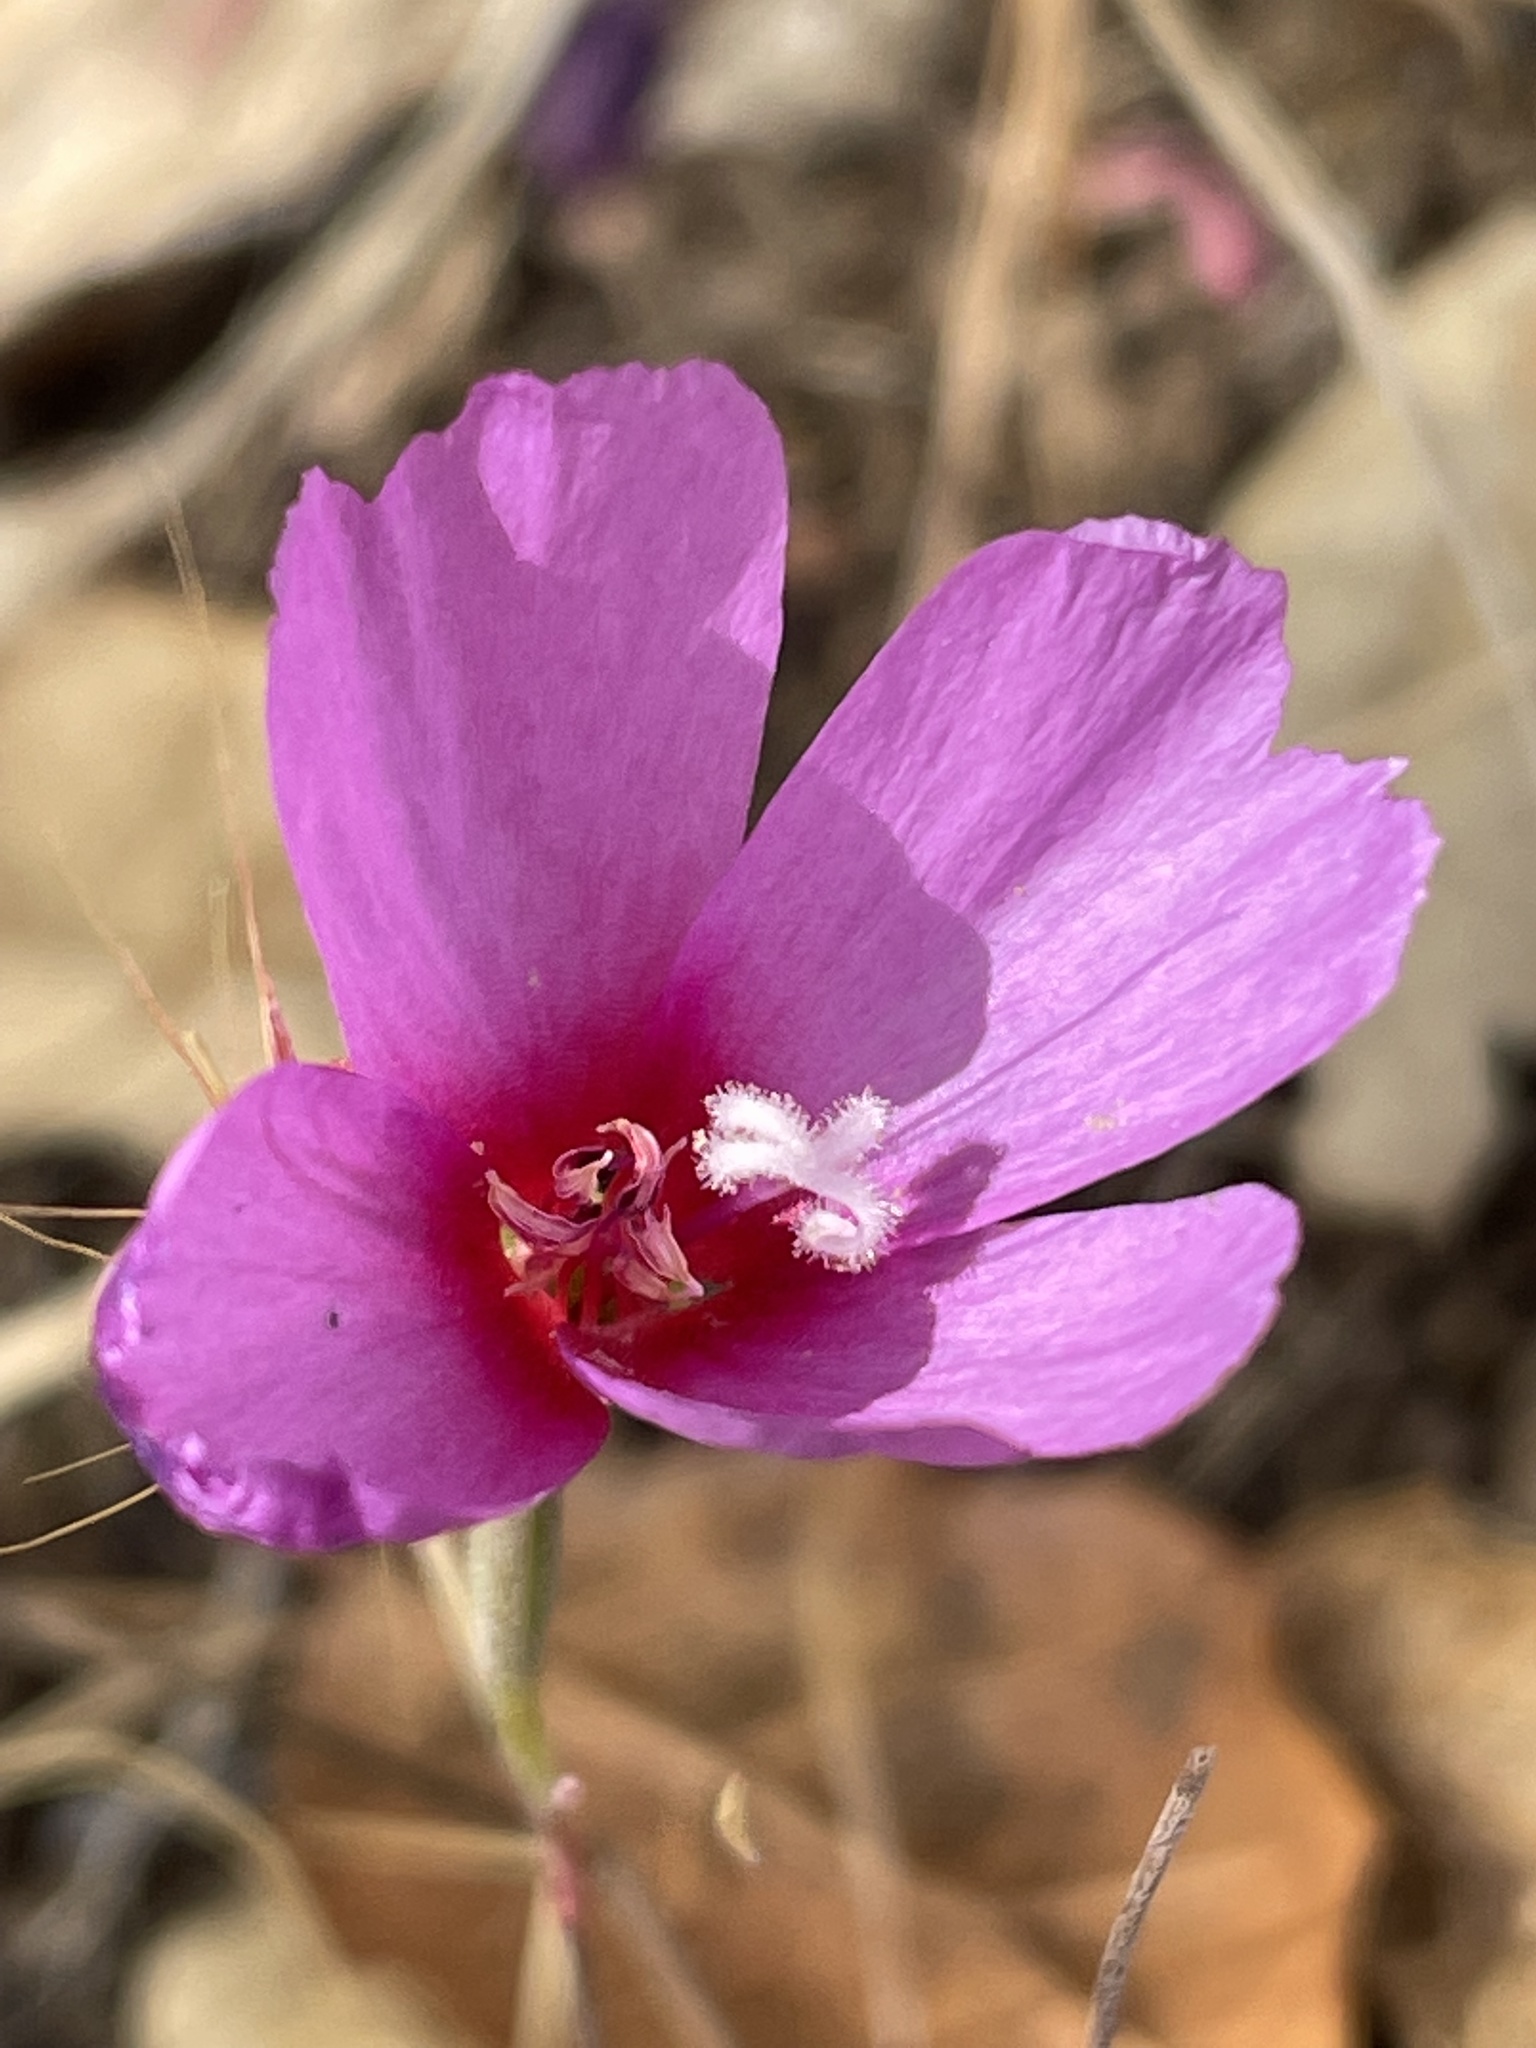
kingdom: Plantae
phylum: Tracheophyta
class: Magnoliopsida
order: Myrtales
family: Onagraceae
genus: Clarkia
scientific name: Clarkia rubicunda
